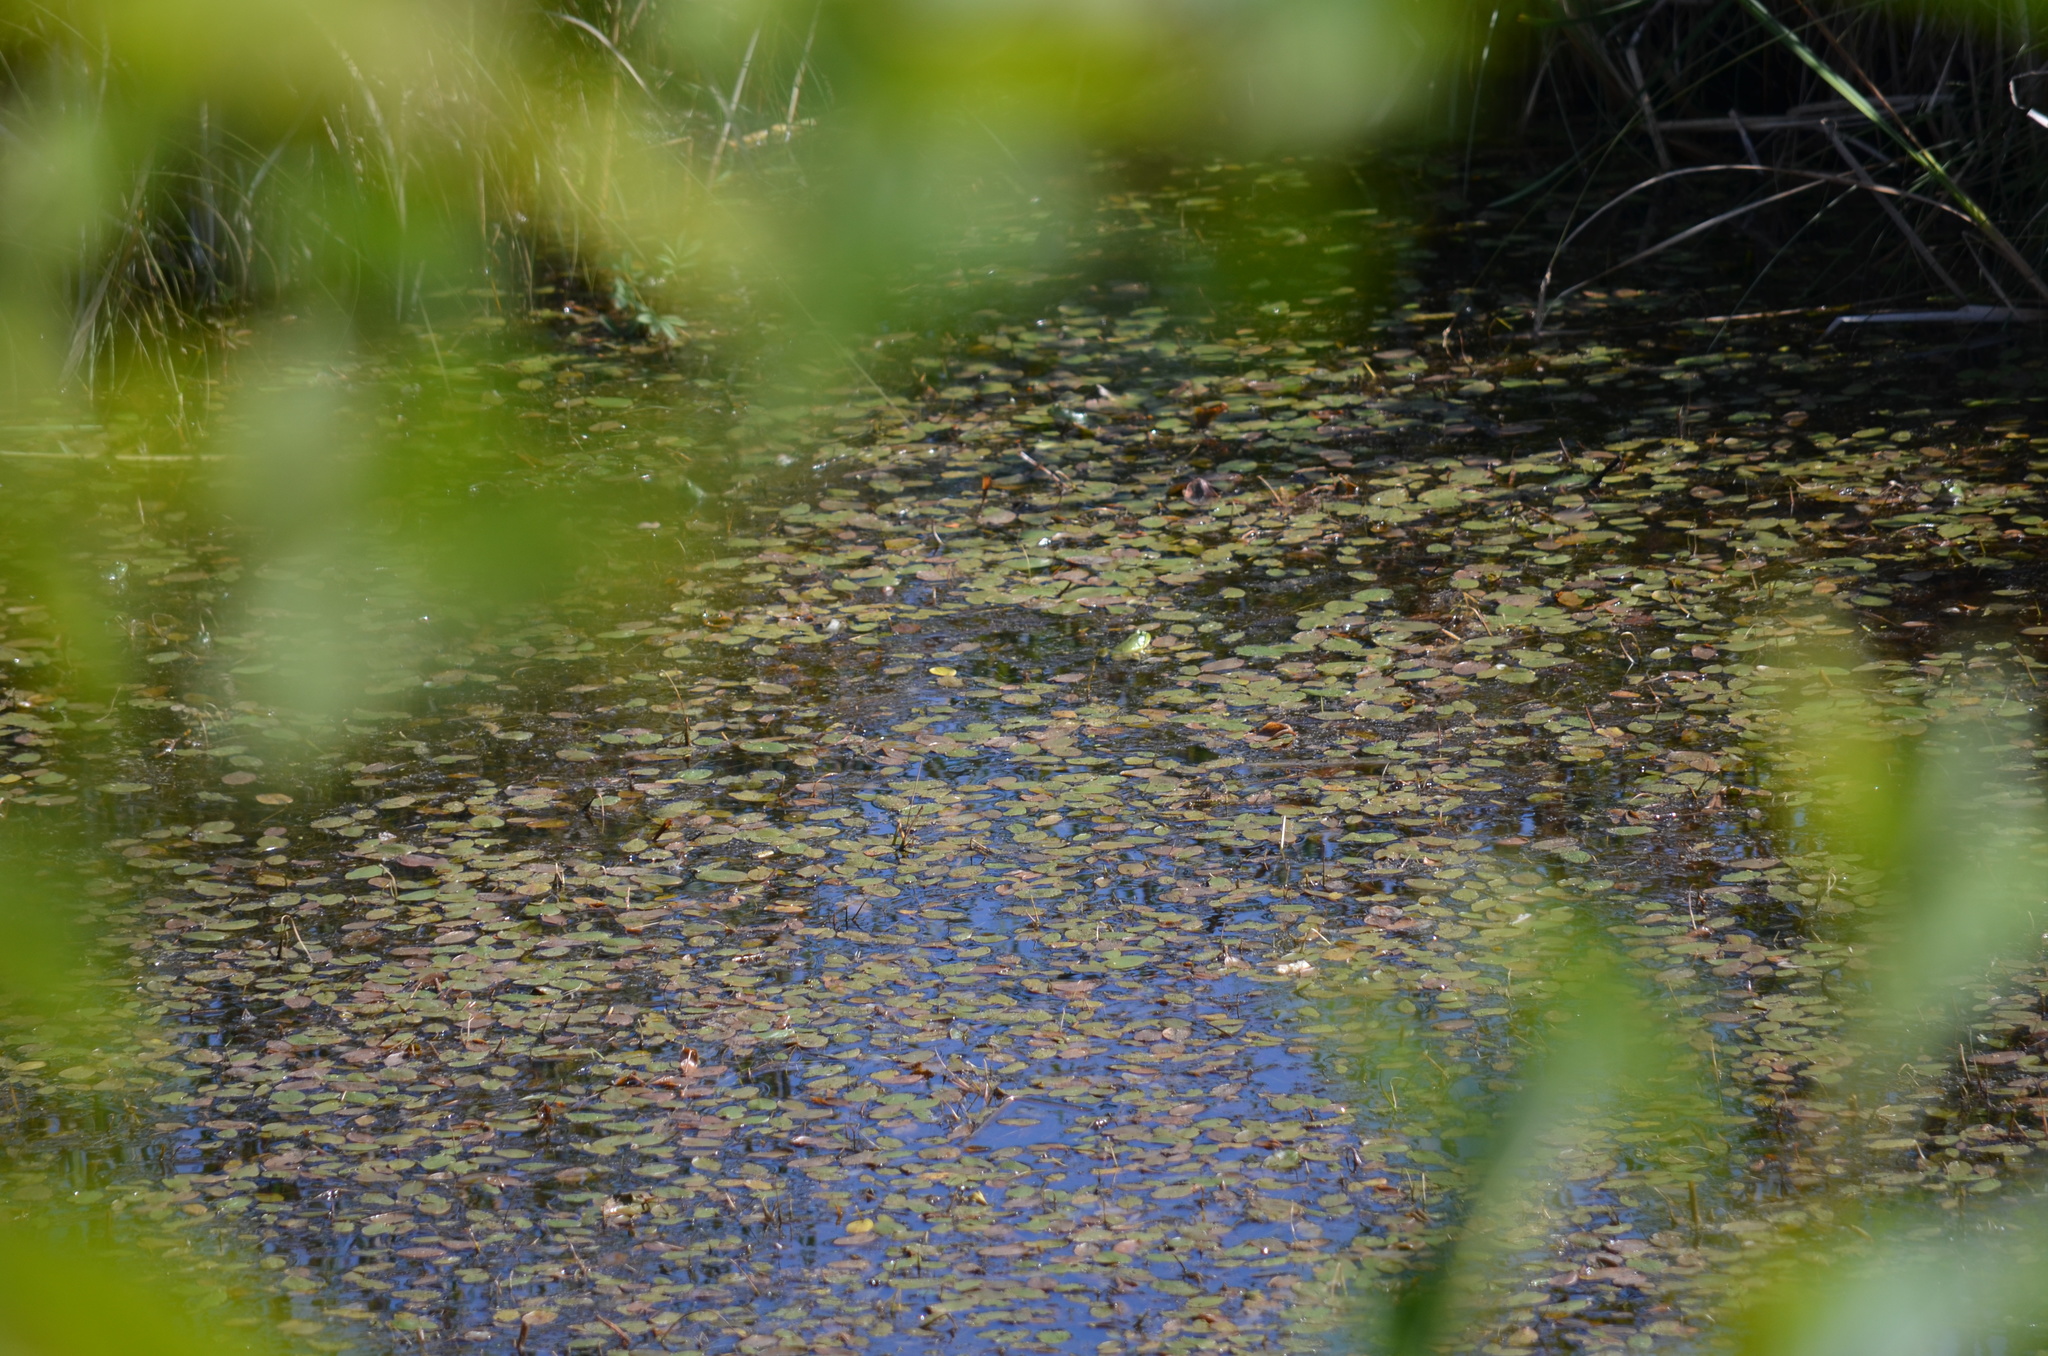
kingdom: Animalia
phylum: Chordata
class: Amphibia
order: Anura
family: Ranidae
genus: Lithobates
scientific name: Lithobates catesbeianus
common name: American bullfrog
